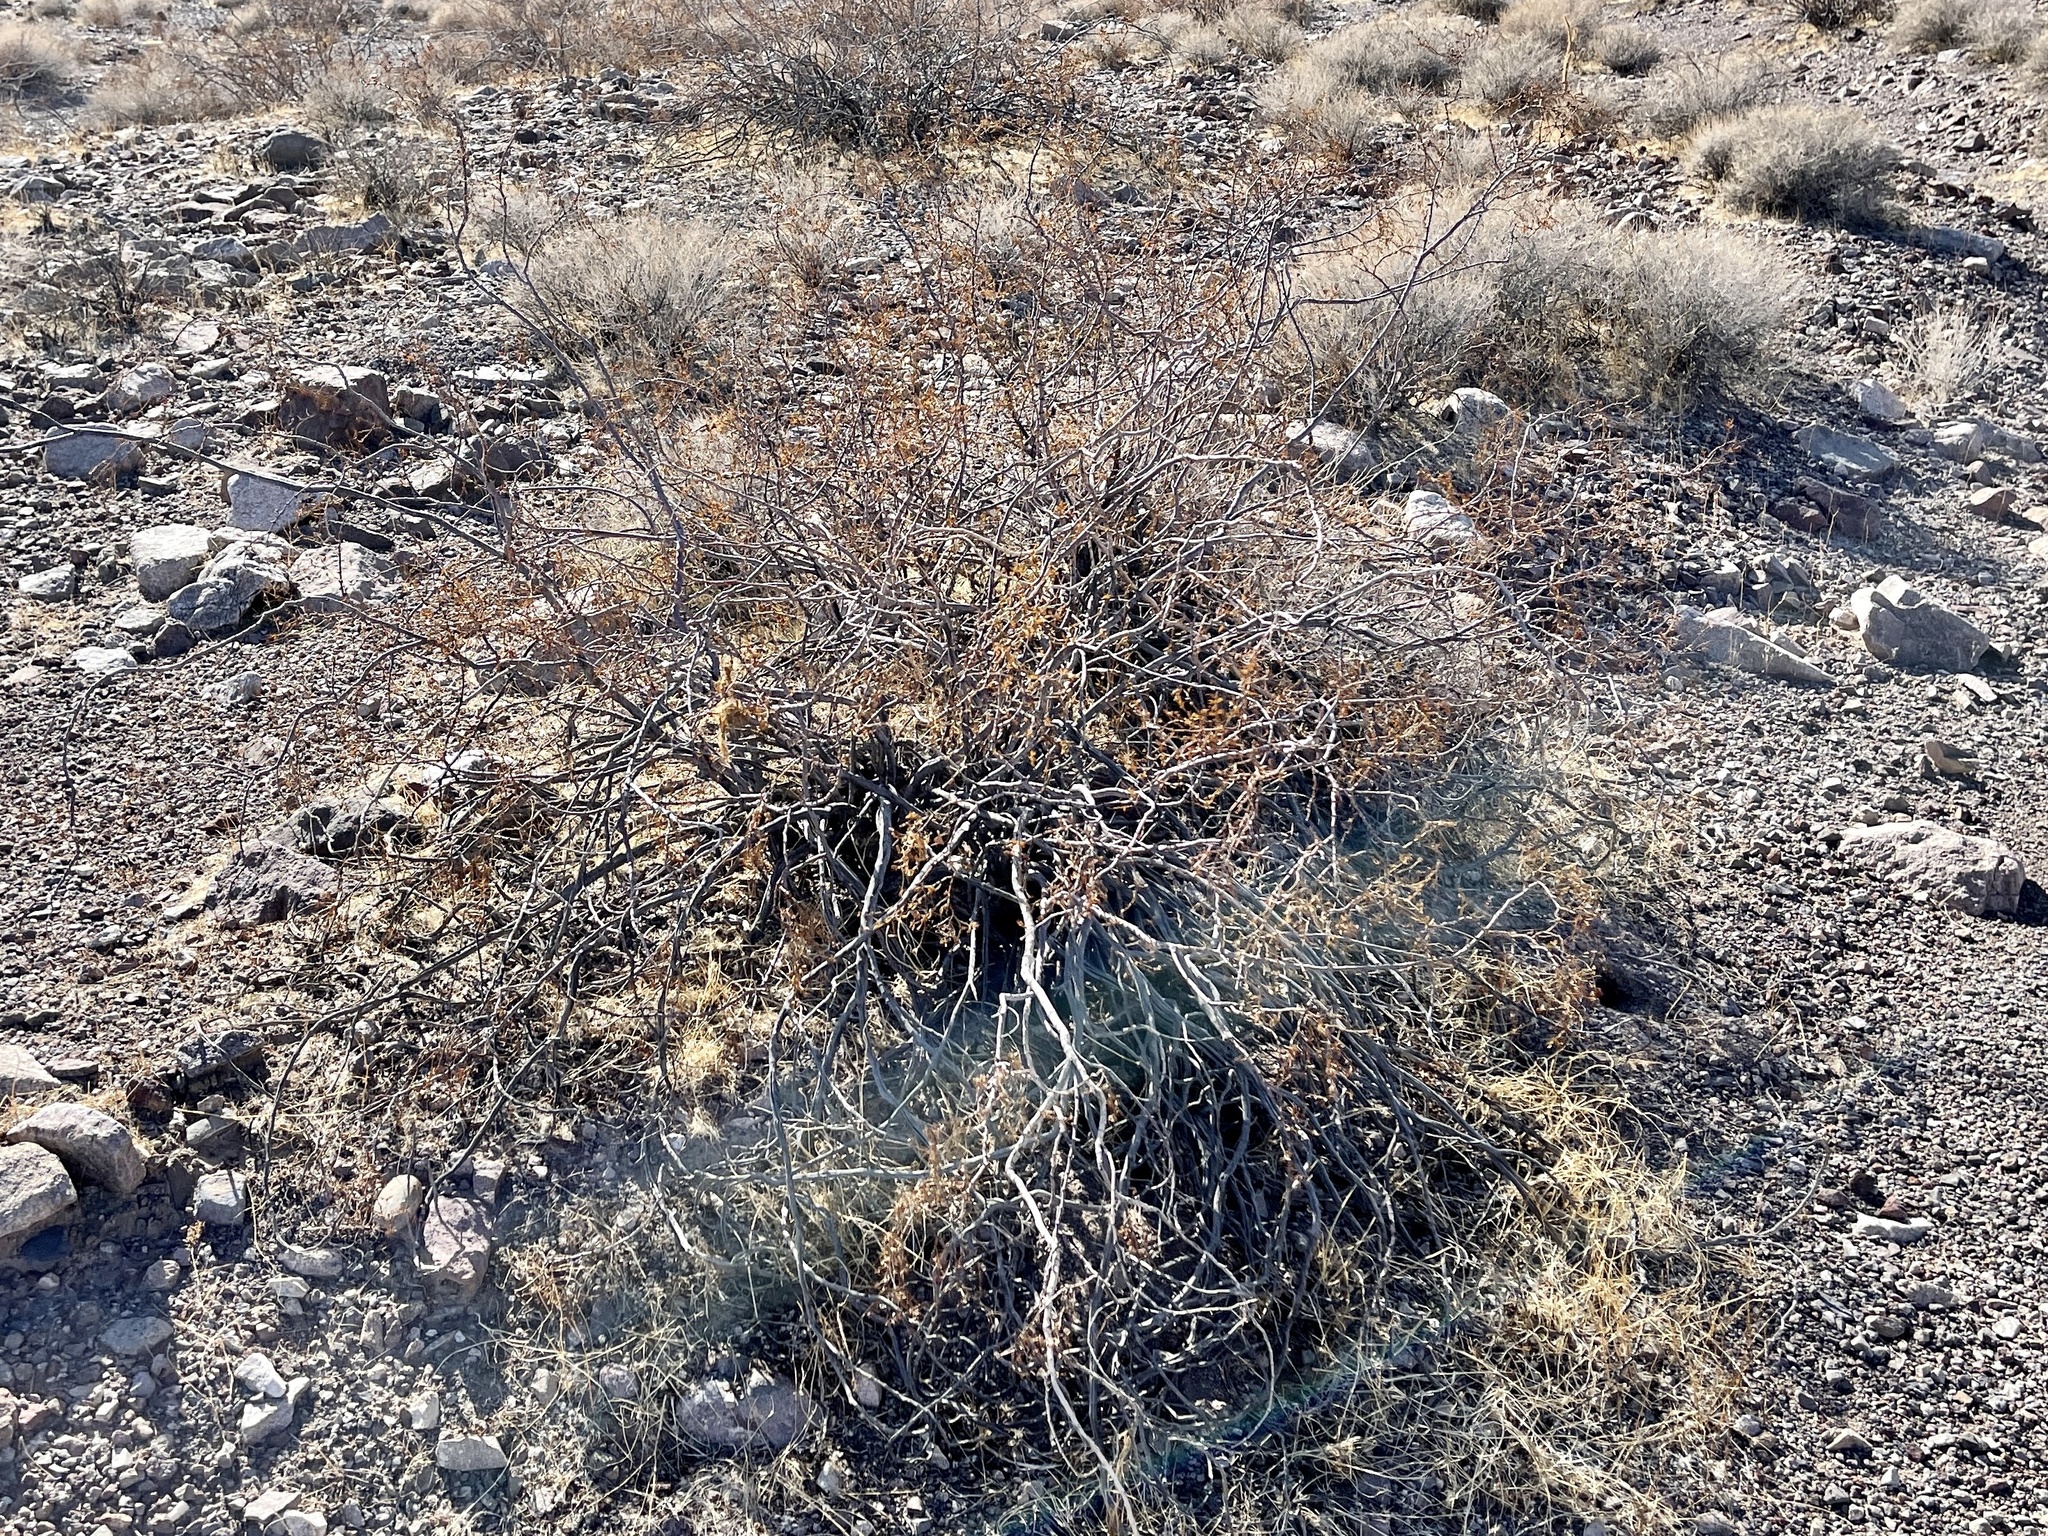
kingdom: Plantae
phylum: Tracheophyta
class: Magnoliopsida
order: Zygophyllales
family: Zygophyllaceae
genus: Larrea
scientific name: Larrea tridentata
